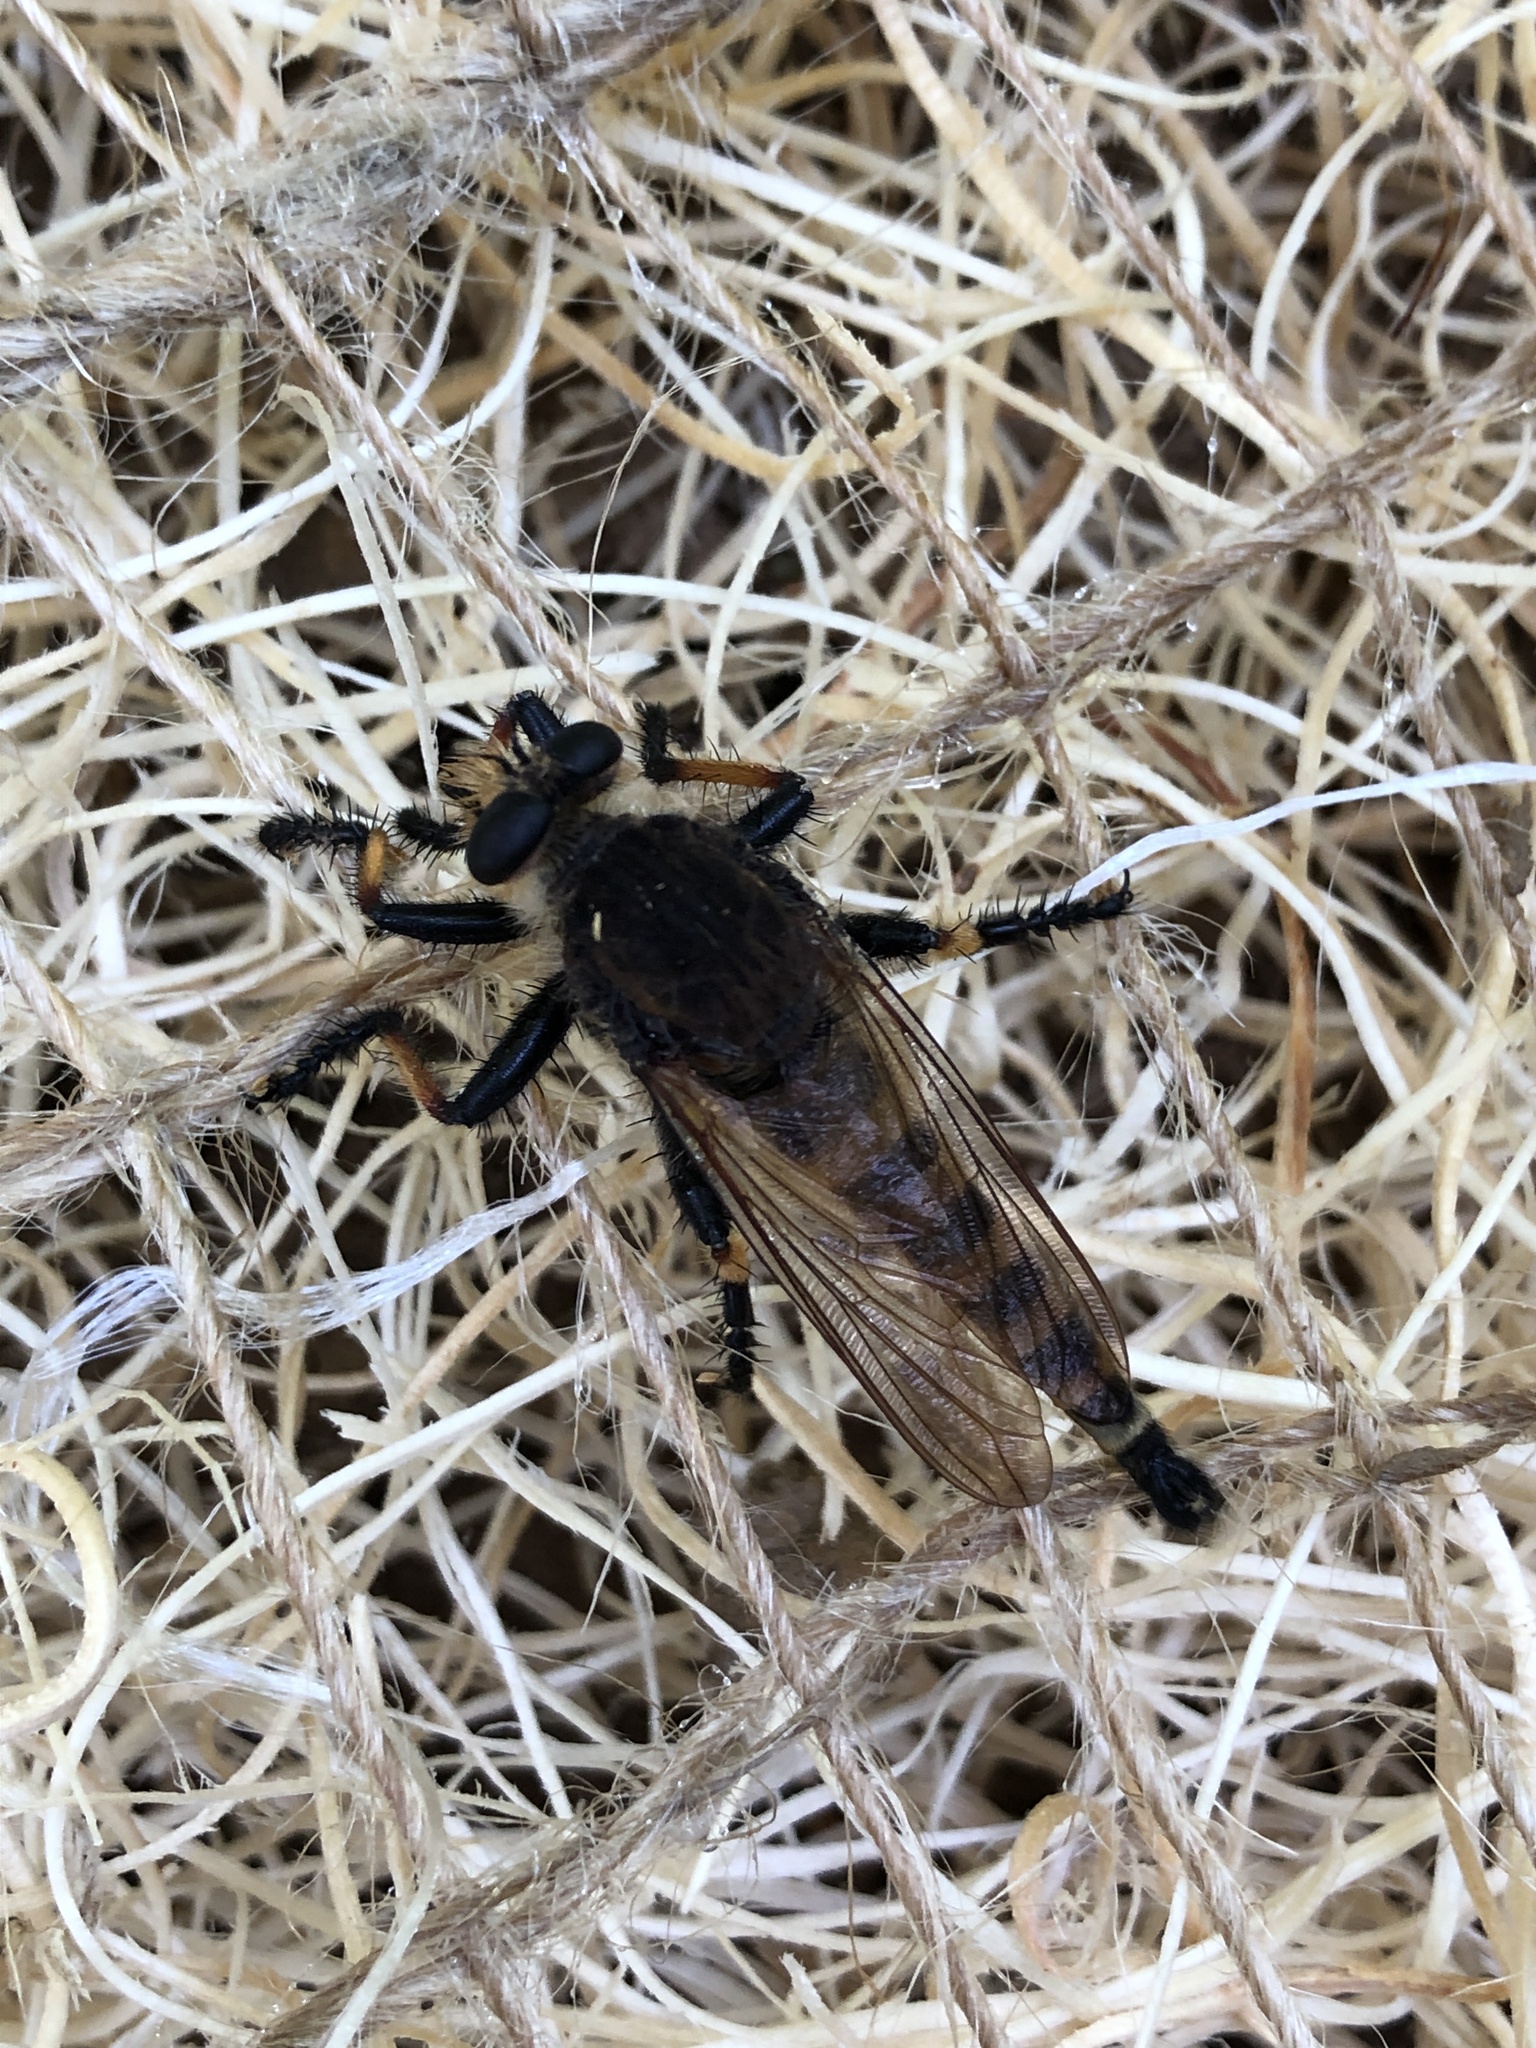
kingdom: Animalia
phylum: Arthropoda
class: Insecta
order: Diptera
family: Asilidae
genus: Promachus
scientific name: Promachus rufipes
